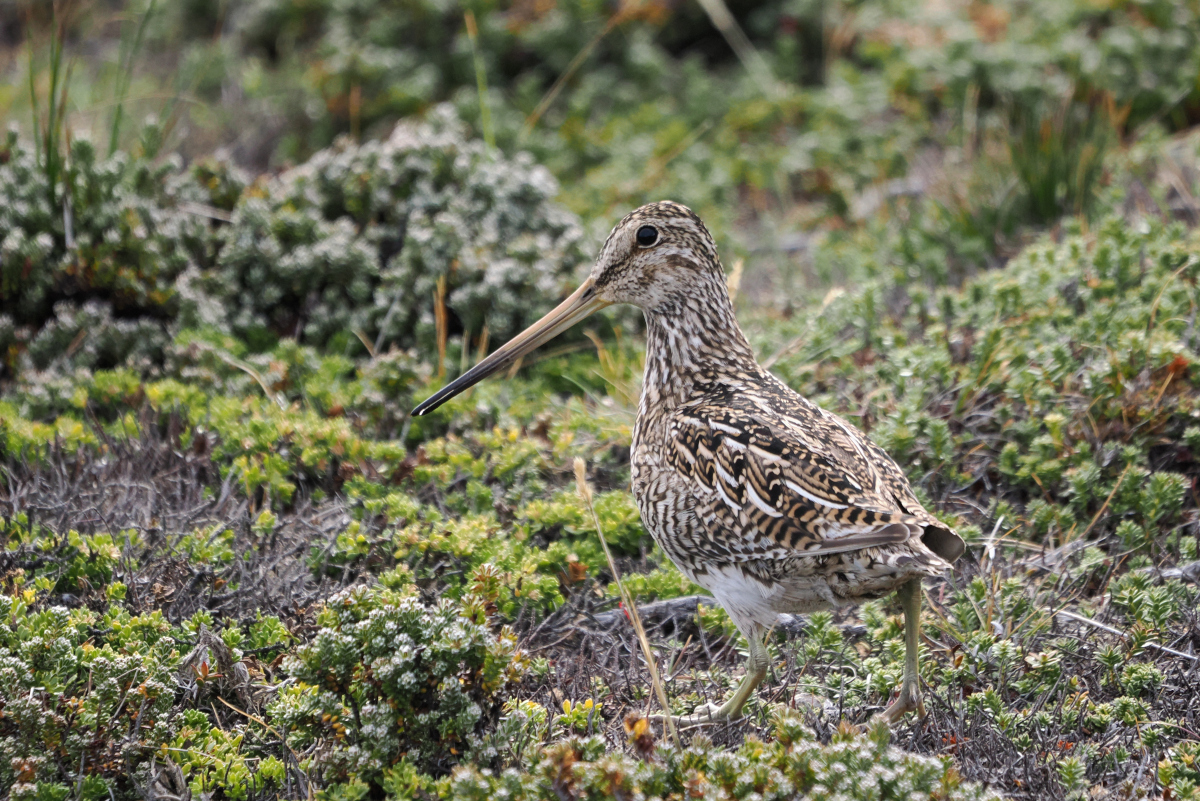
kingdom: Animalia
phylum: Chordata
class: Aves
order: Charadriiformes
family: Scolopacidae
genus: Gallinago
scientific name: Gallinago magellanica
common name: Magellanic snipe
